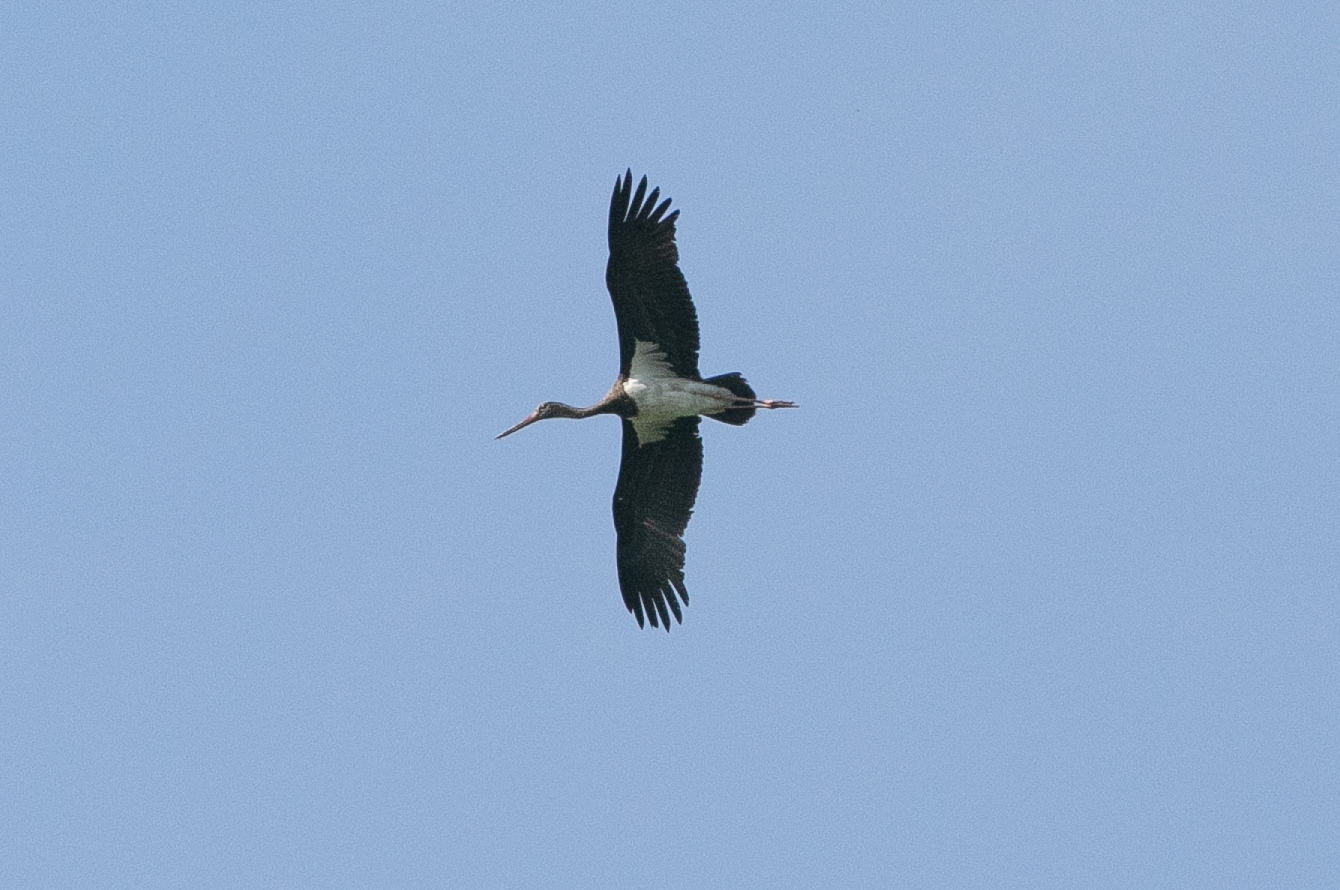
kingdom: Animalia
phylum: Chordata
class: Aves
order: Ciconiiformes
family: Ciconiidae
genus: Ciconia
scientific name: Ciconia nigra
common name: Black stork
